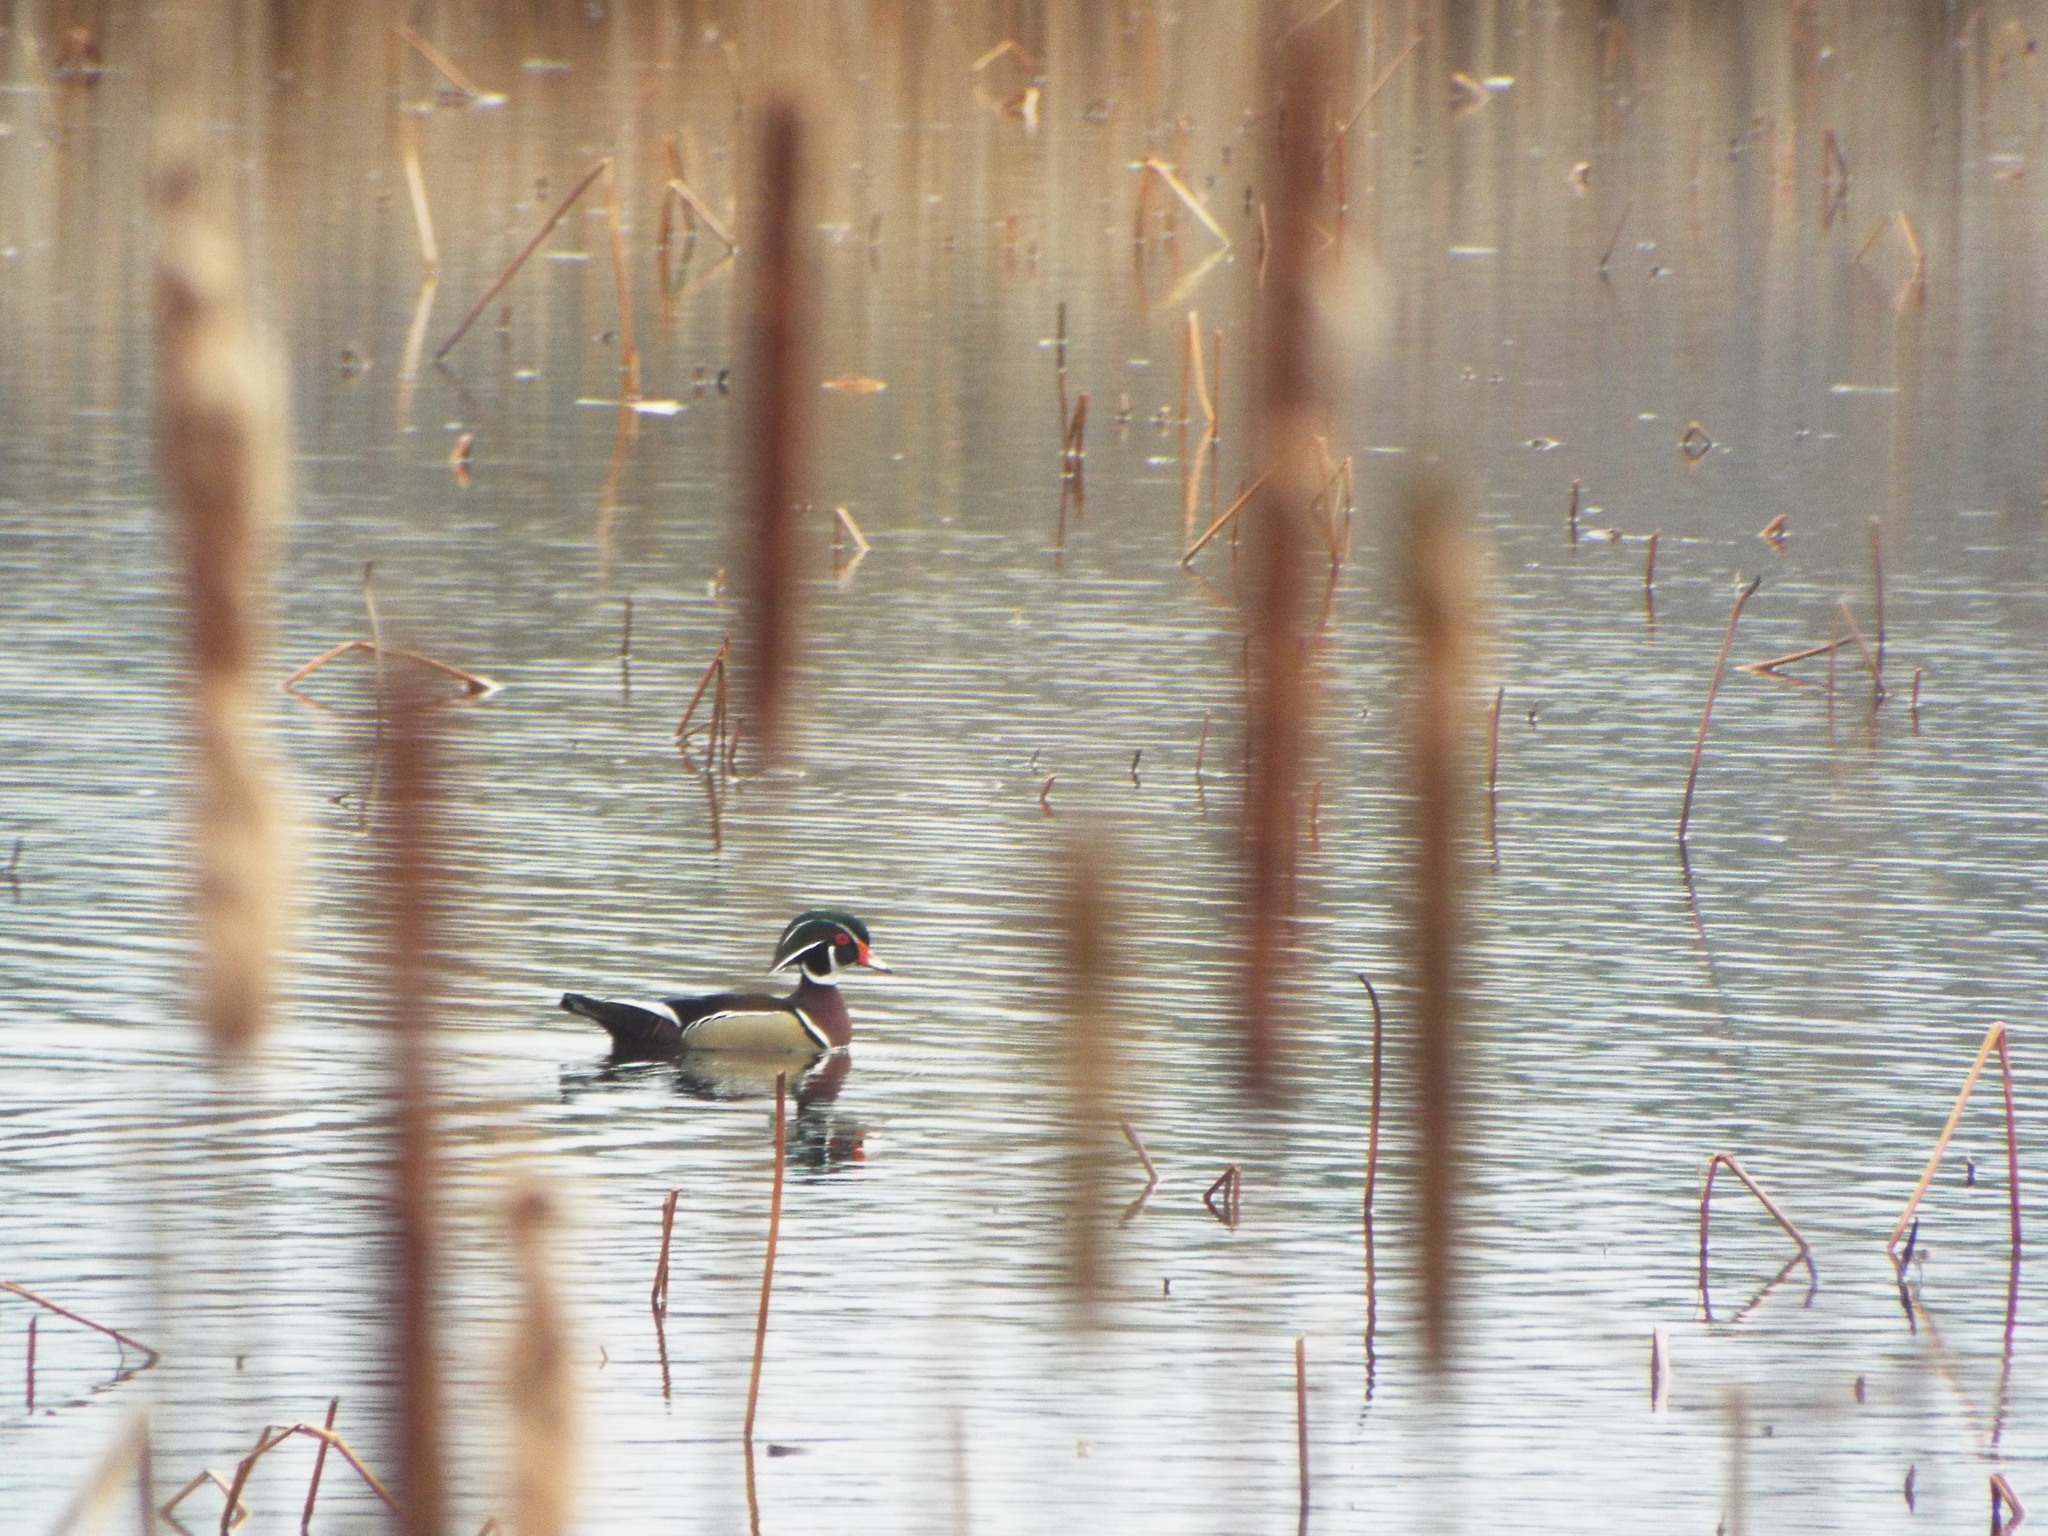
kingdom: Animalia
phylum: Chordata
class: Aves
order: Anseriformes
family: Anatidae
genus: Aix
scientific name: Aix sponsa
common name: Wood duck
